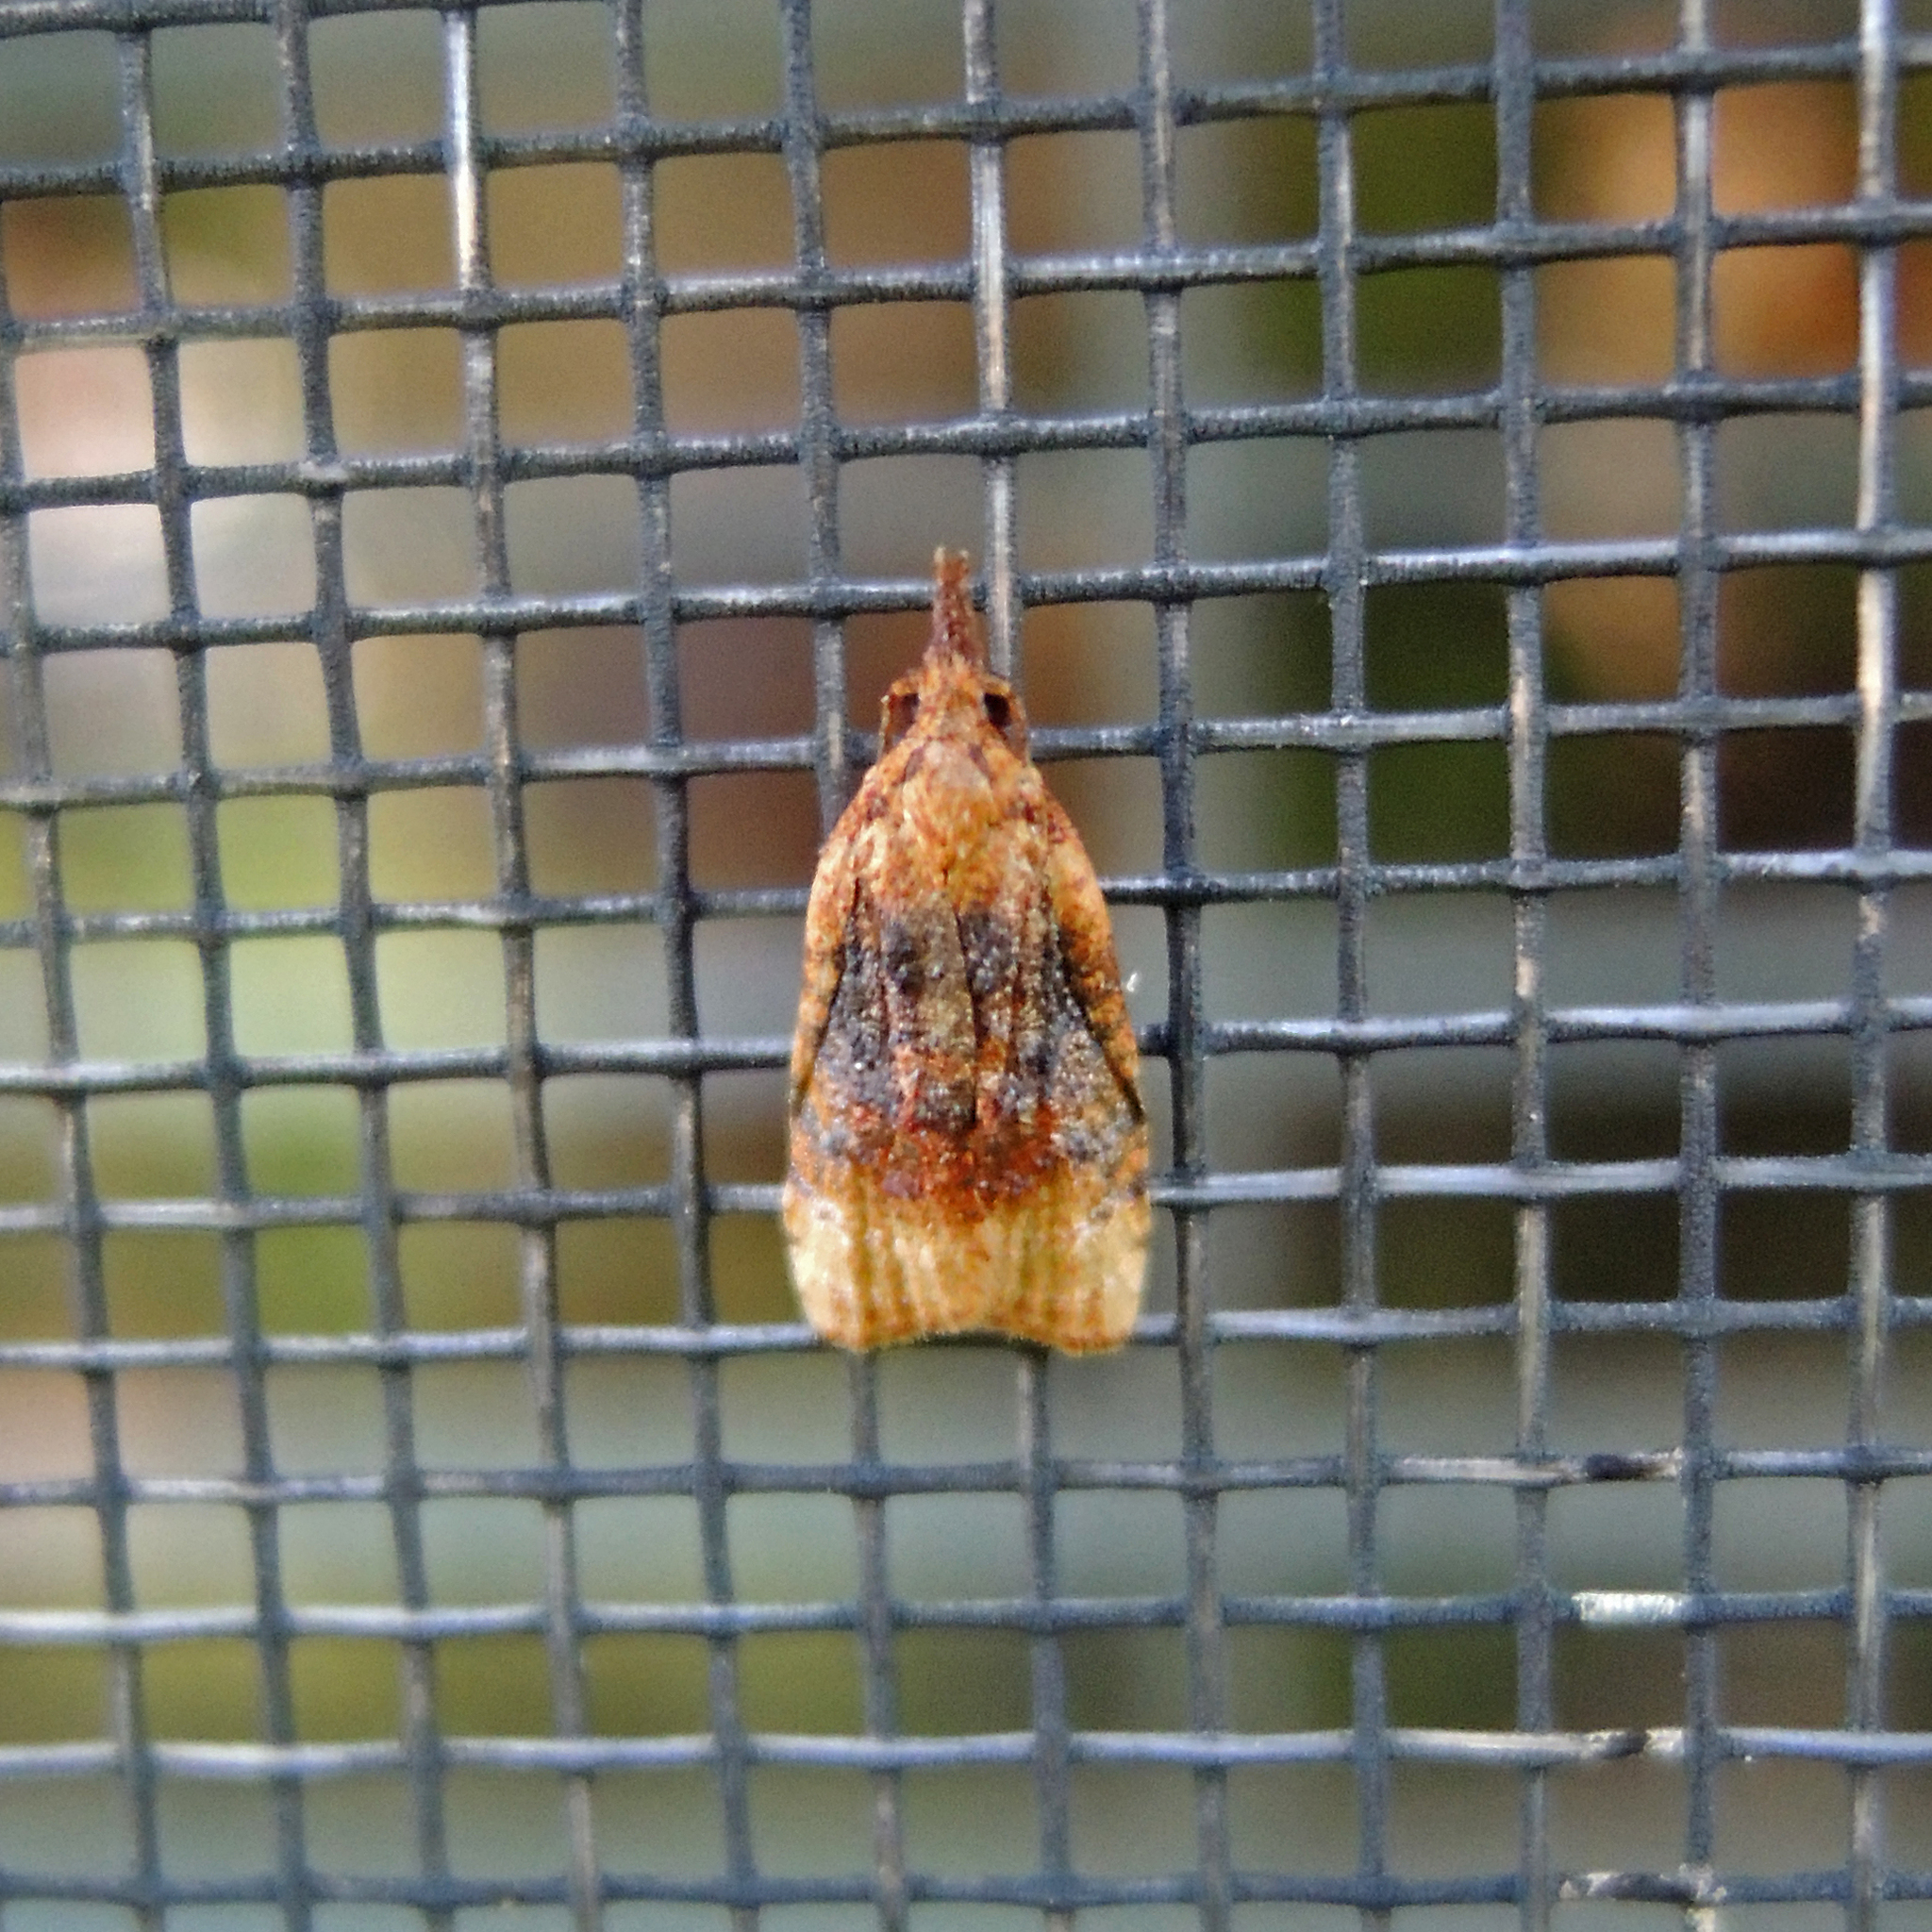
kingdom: Animalia
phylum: Arthropoda
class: Insecta
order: Lepidoptera
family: Tortricidae
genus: Platynota
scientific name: Platynota flavedana
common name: Black-shaded platynota moth
